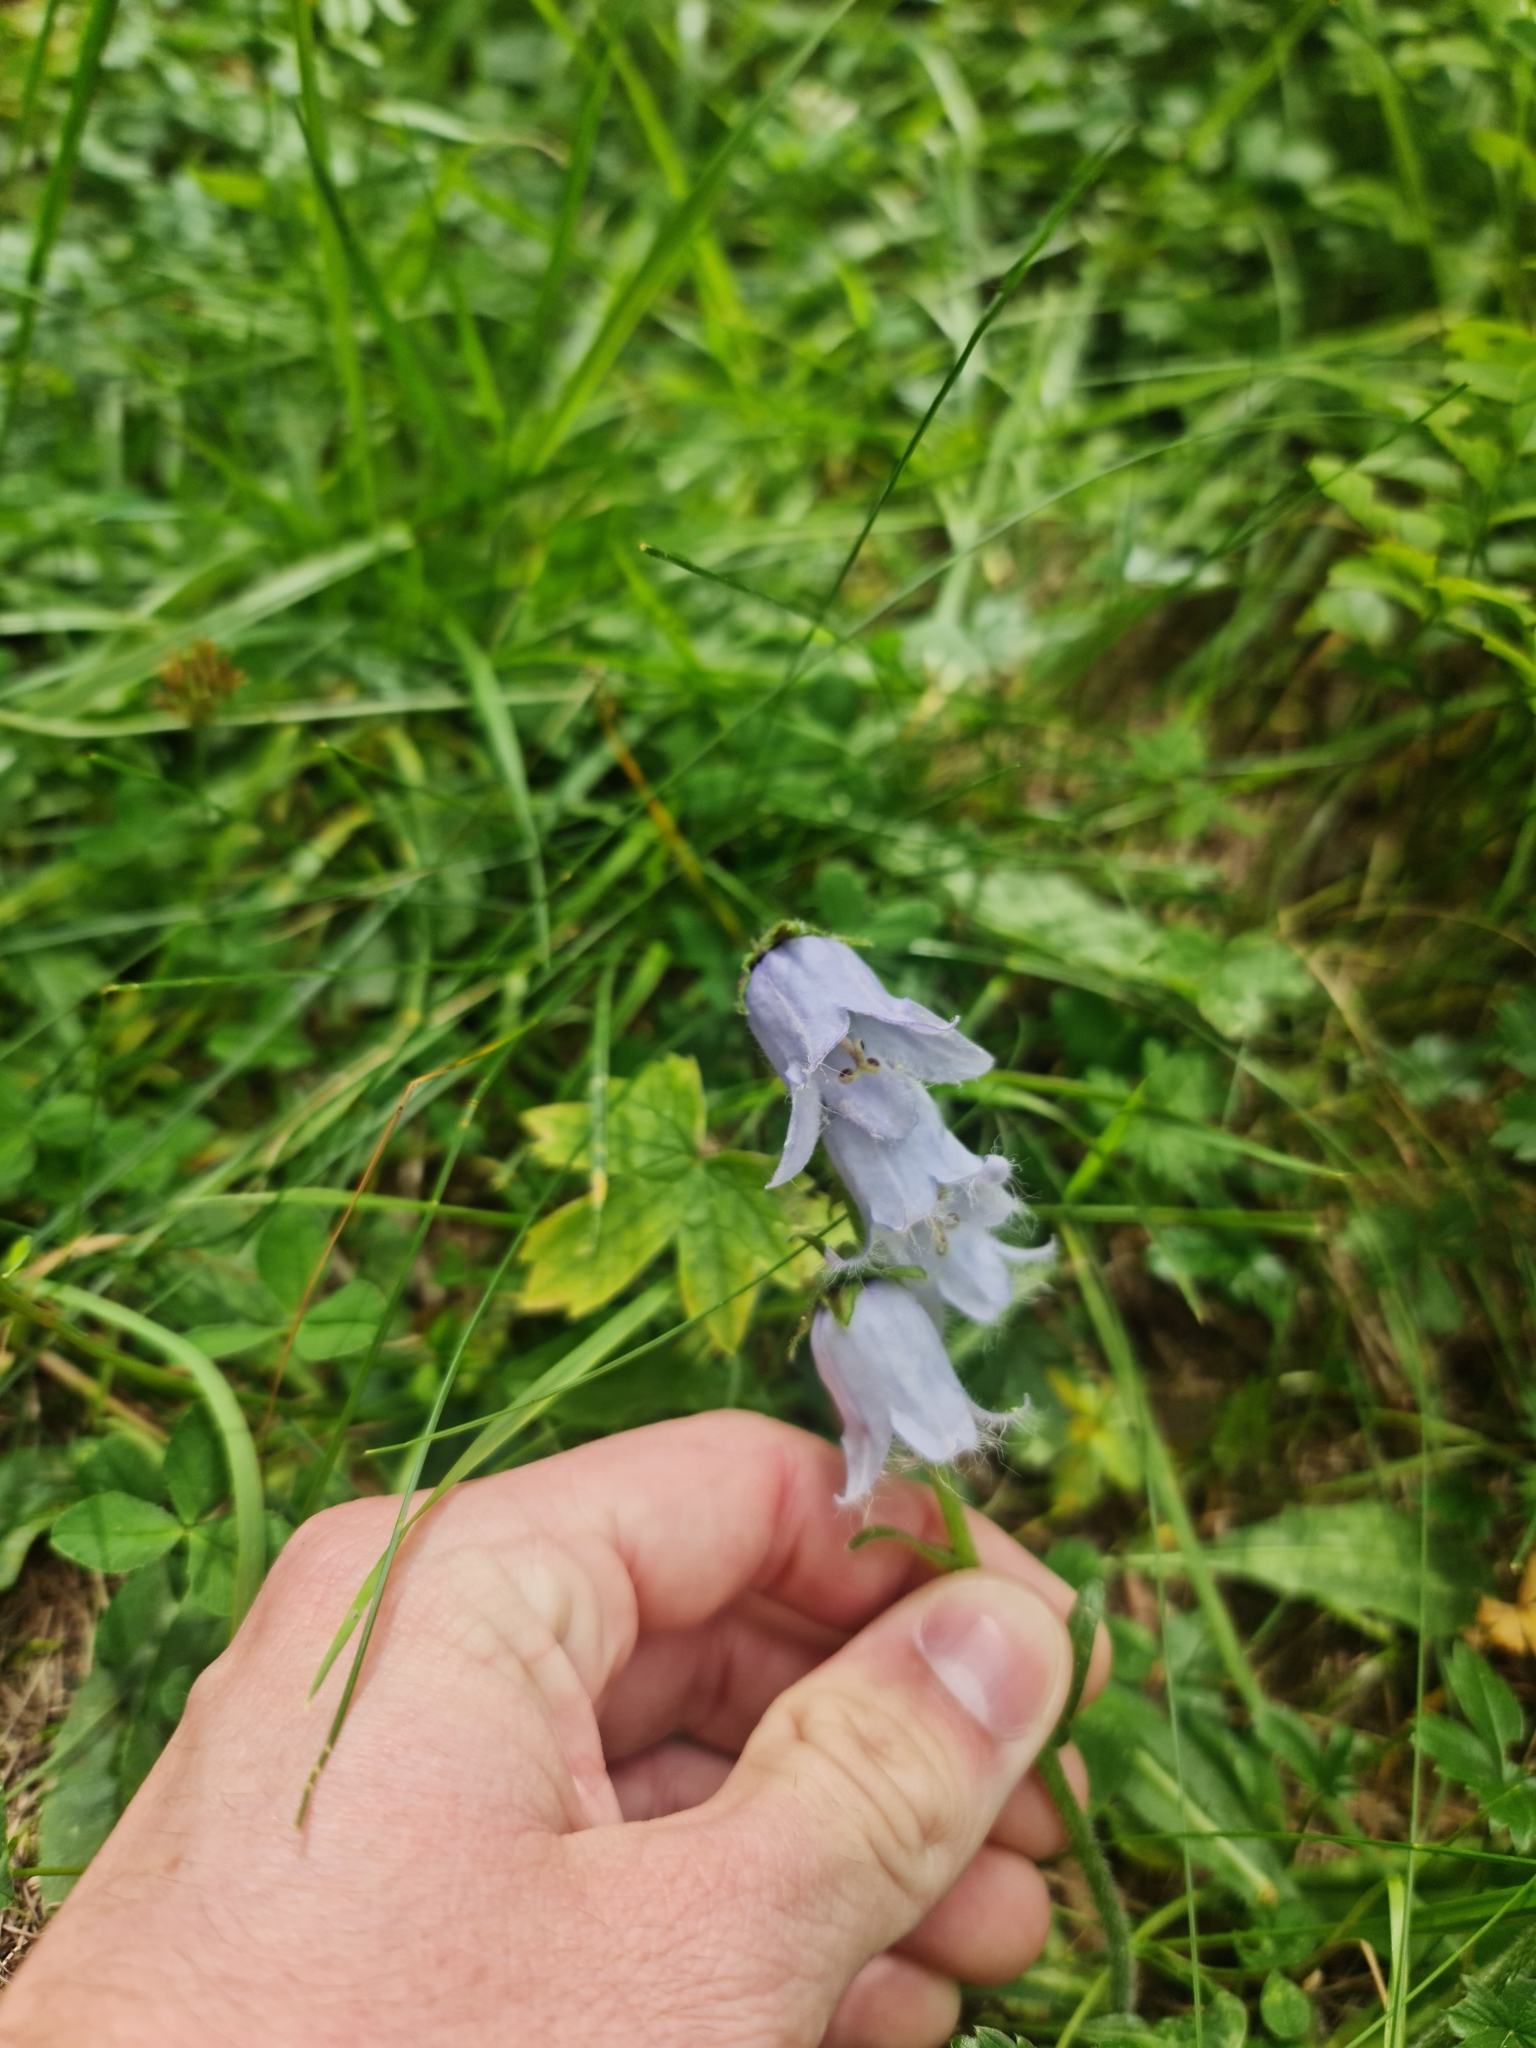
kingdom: Plantae
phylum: Tracheophyta
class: Magnoliopsida
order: Asterales
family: Campanulaceae
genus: Campanula
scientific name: Campanula barbata
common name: Bearded bellflower
